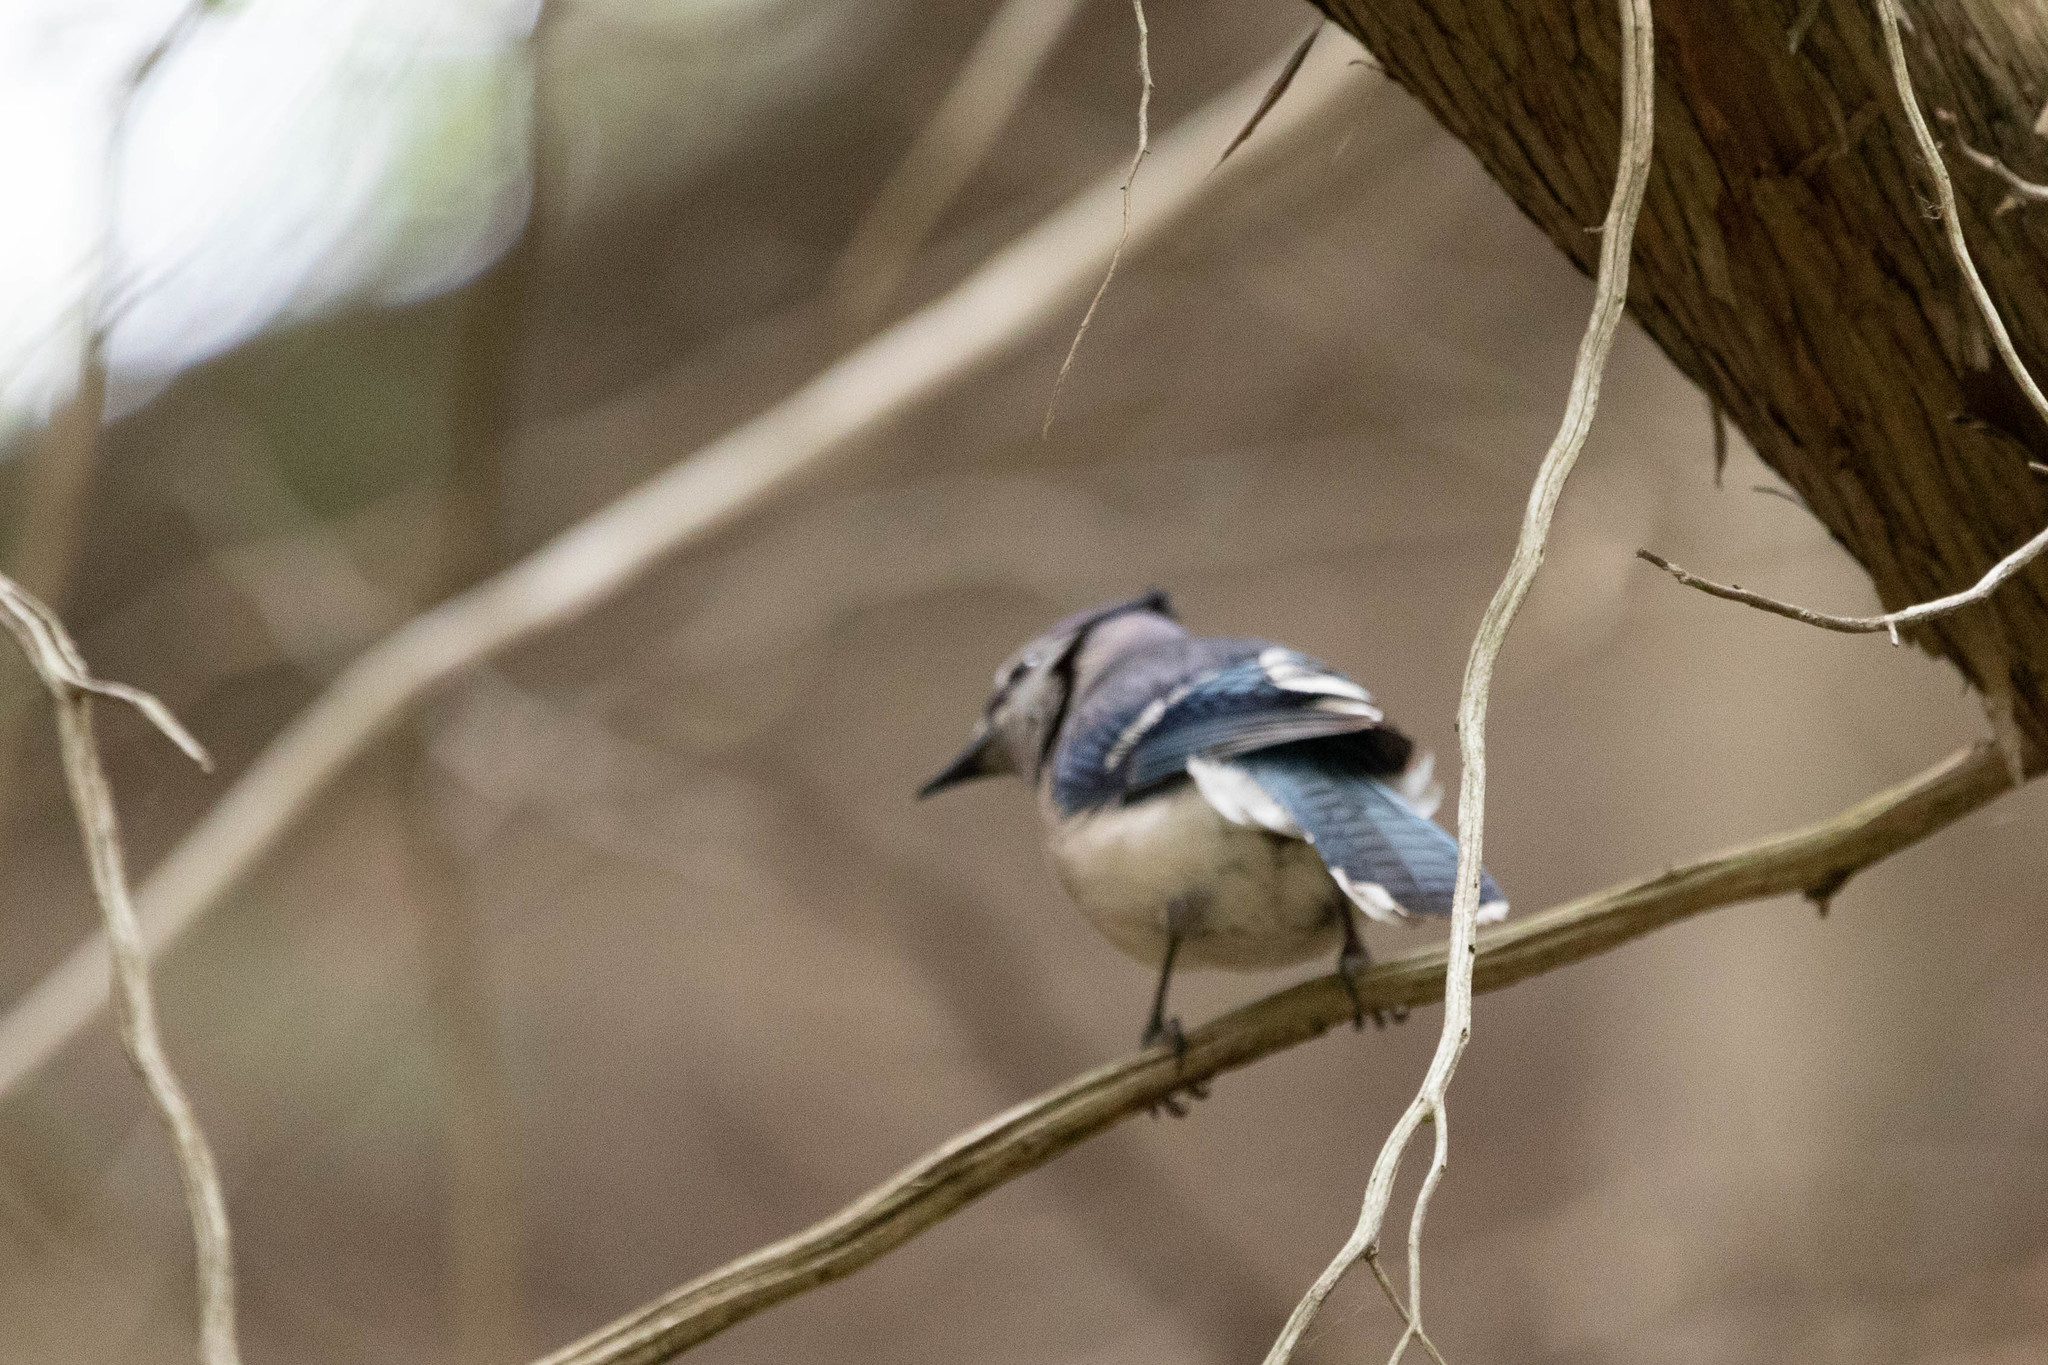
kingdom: Animalia
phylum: Chordata
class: Aves
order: Passeriformes
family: Corvidae
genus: Cyanocitta
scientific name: Cyanocitta cristata
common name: Blue jay
